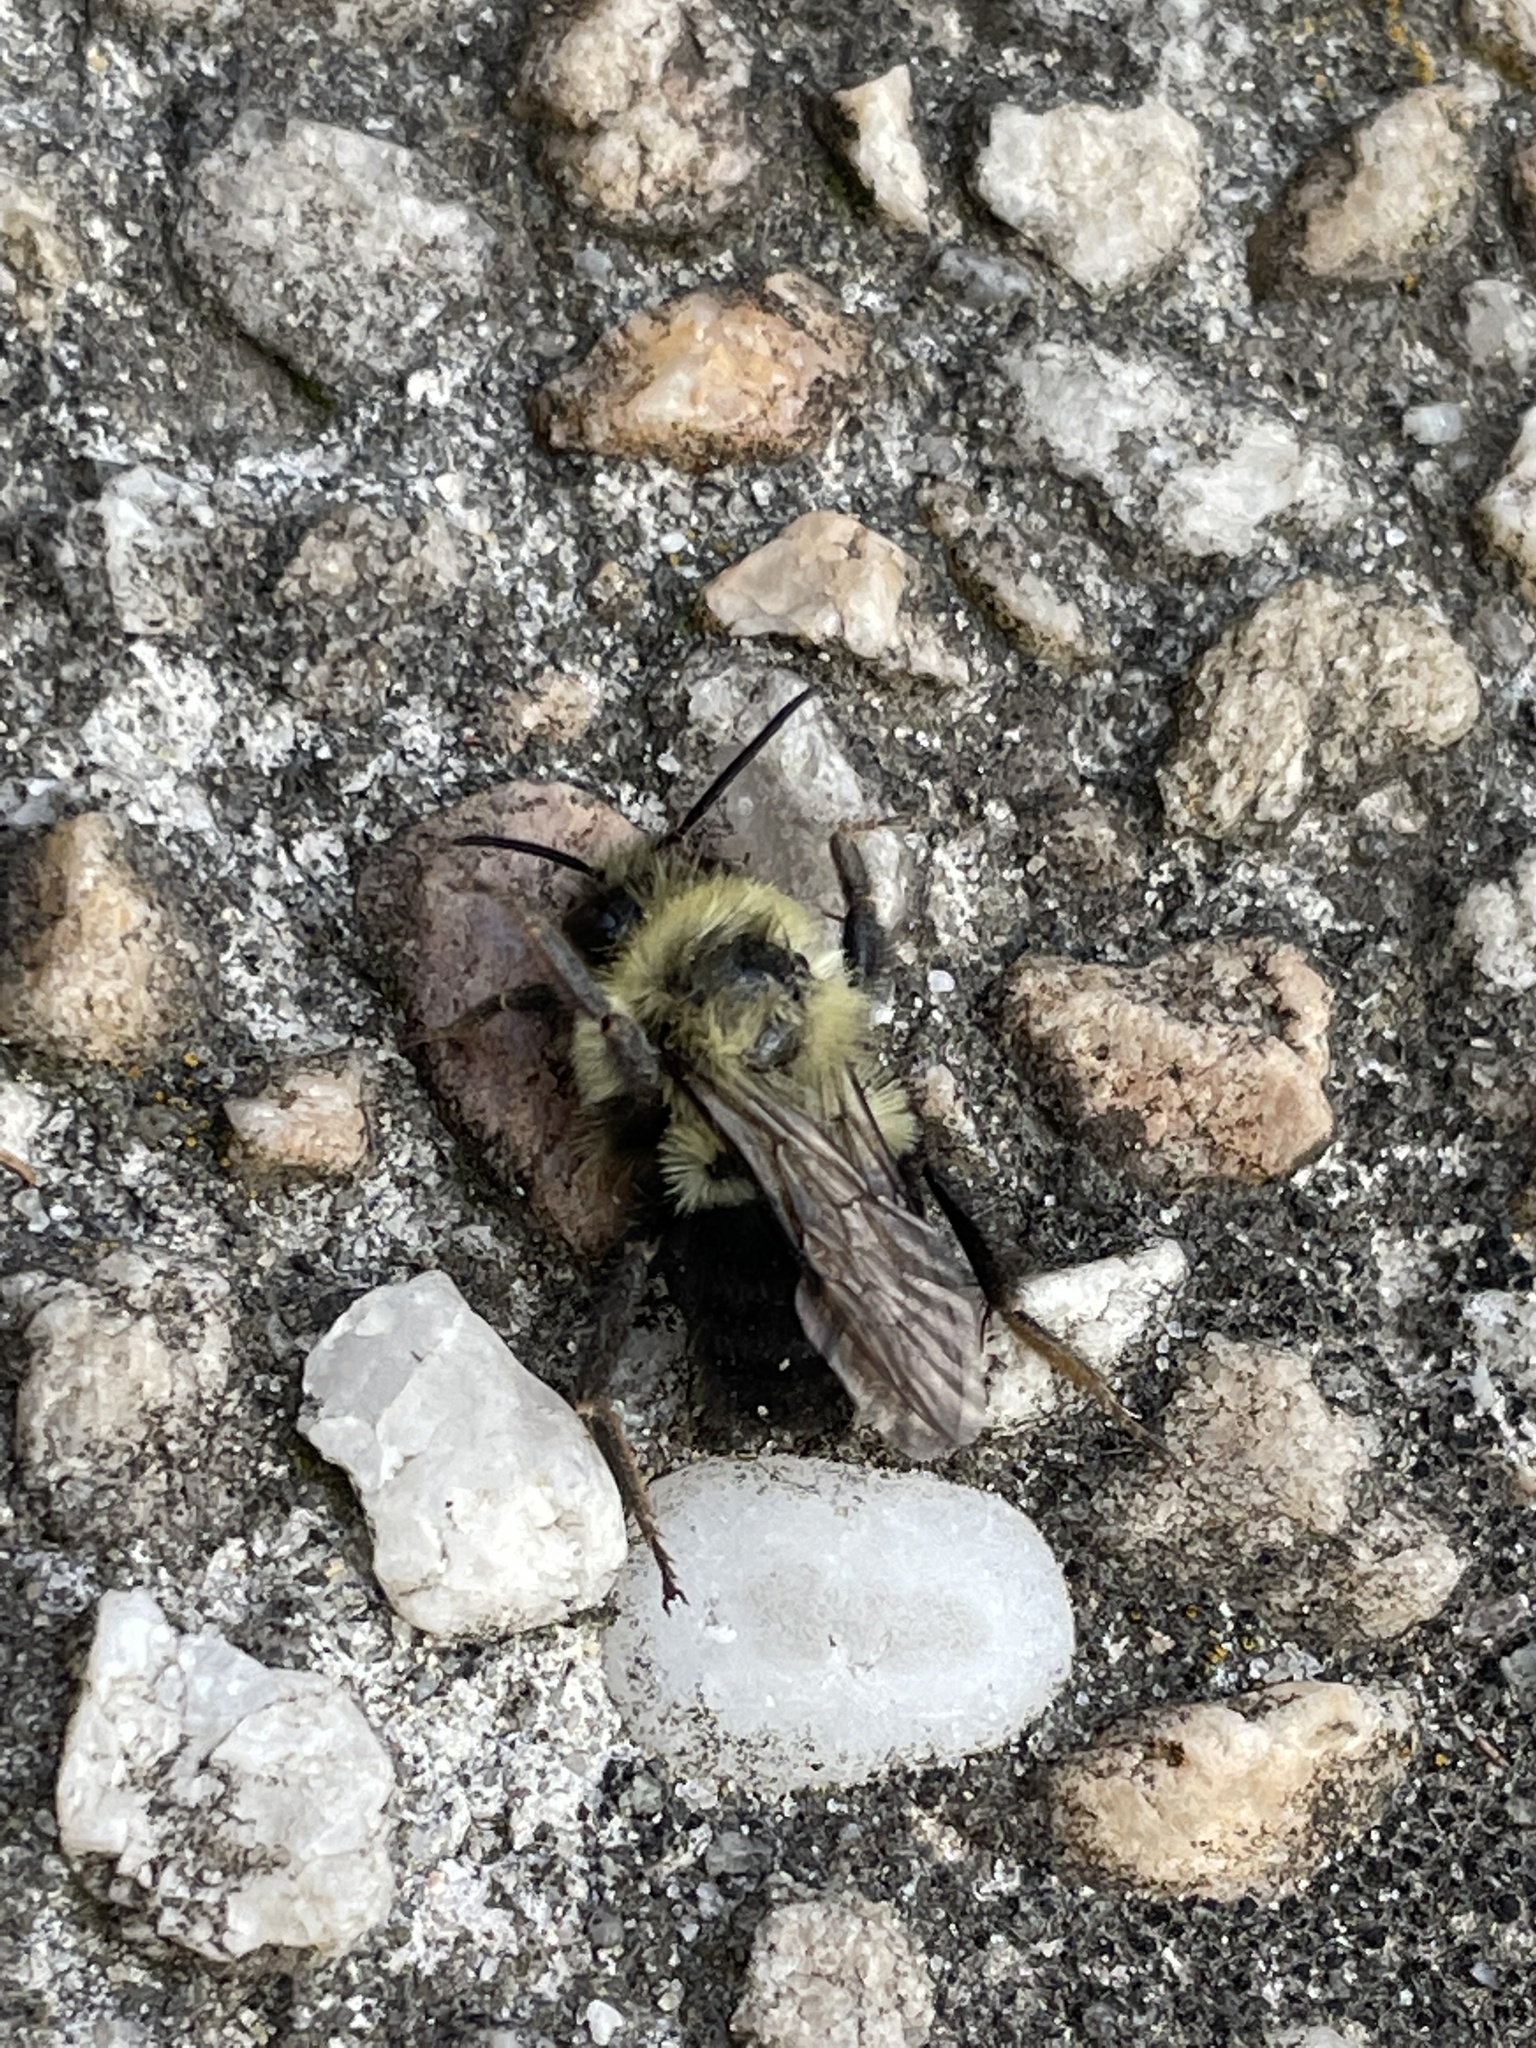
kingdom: Animalia
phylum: Arthropoda
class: Insecta
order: Hymenoptera
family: Apidae
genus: Bombus
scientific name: Bombus impatiens
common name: Common eastern bumble bee
